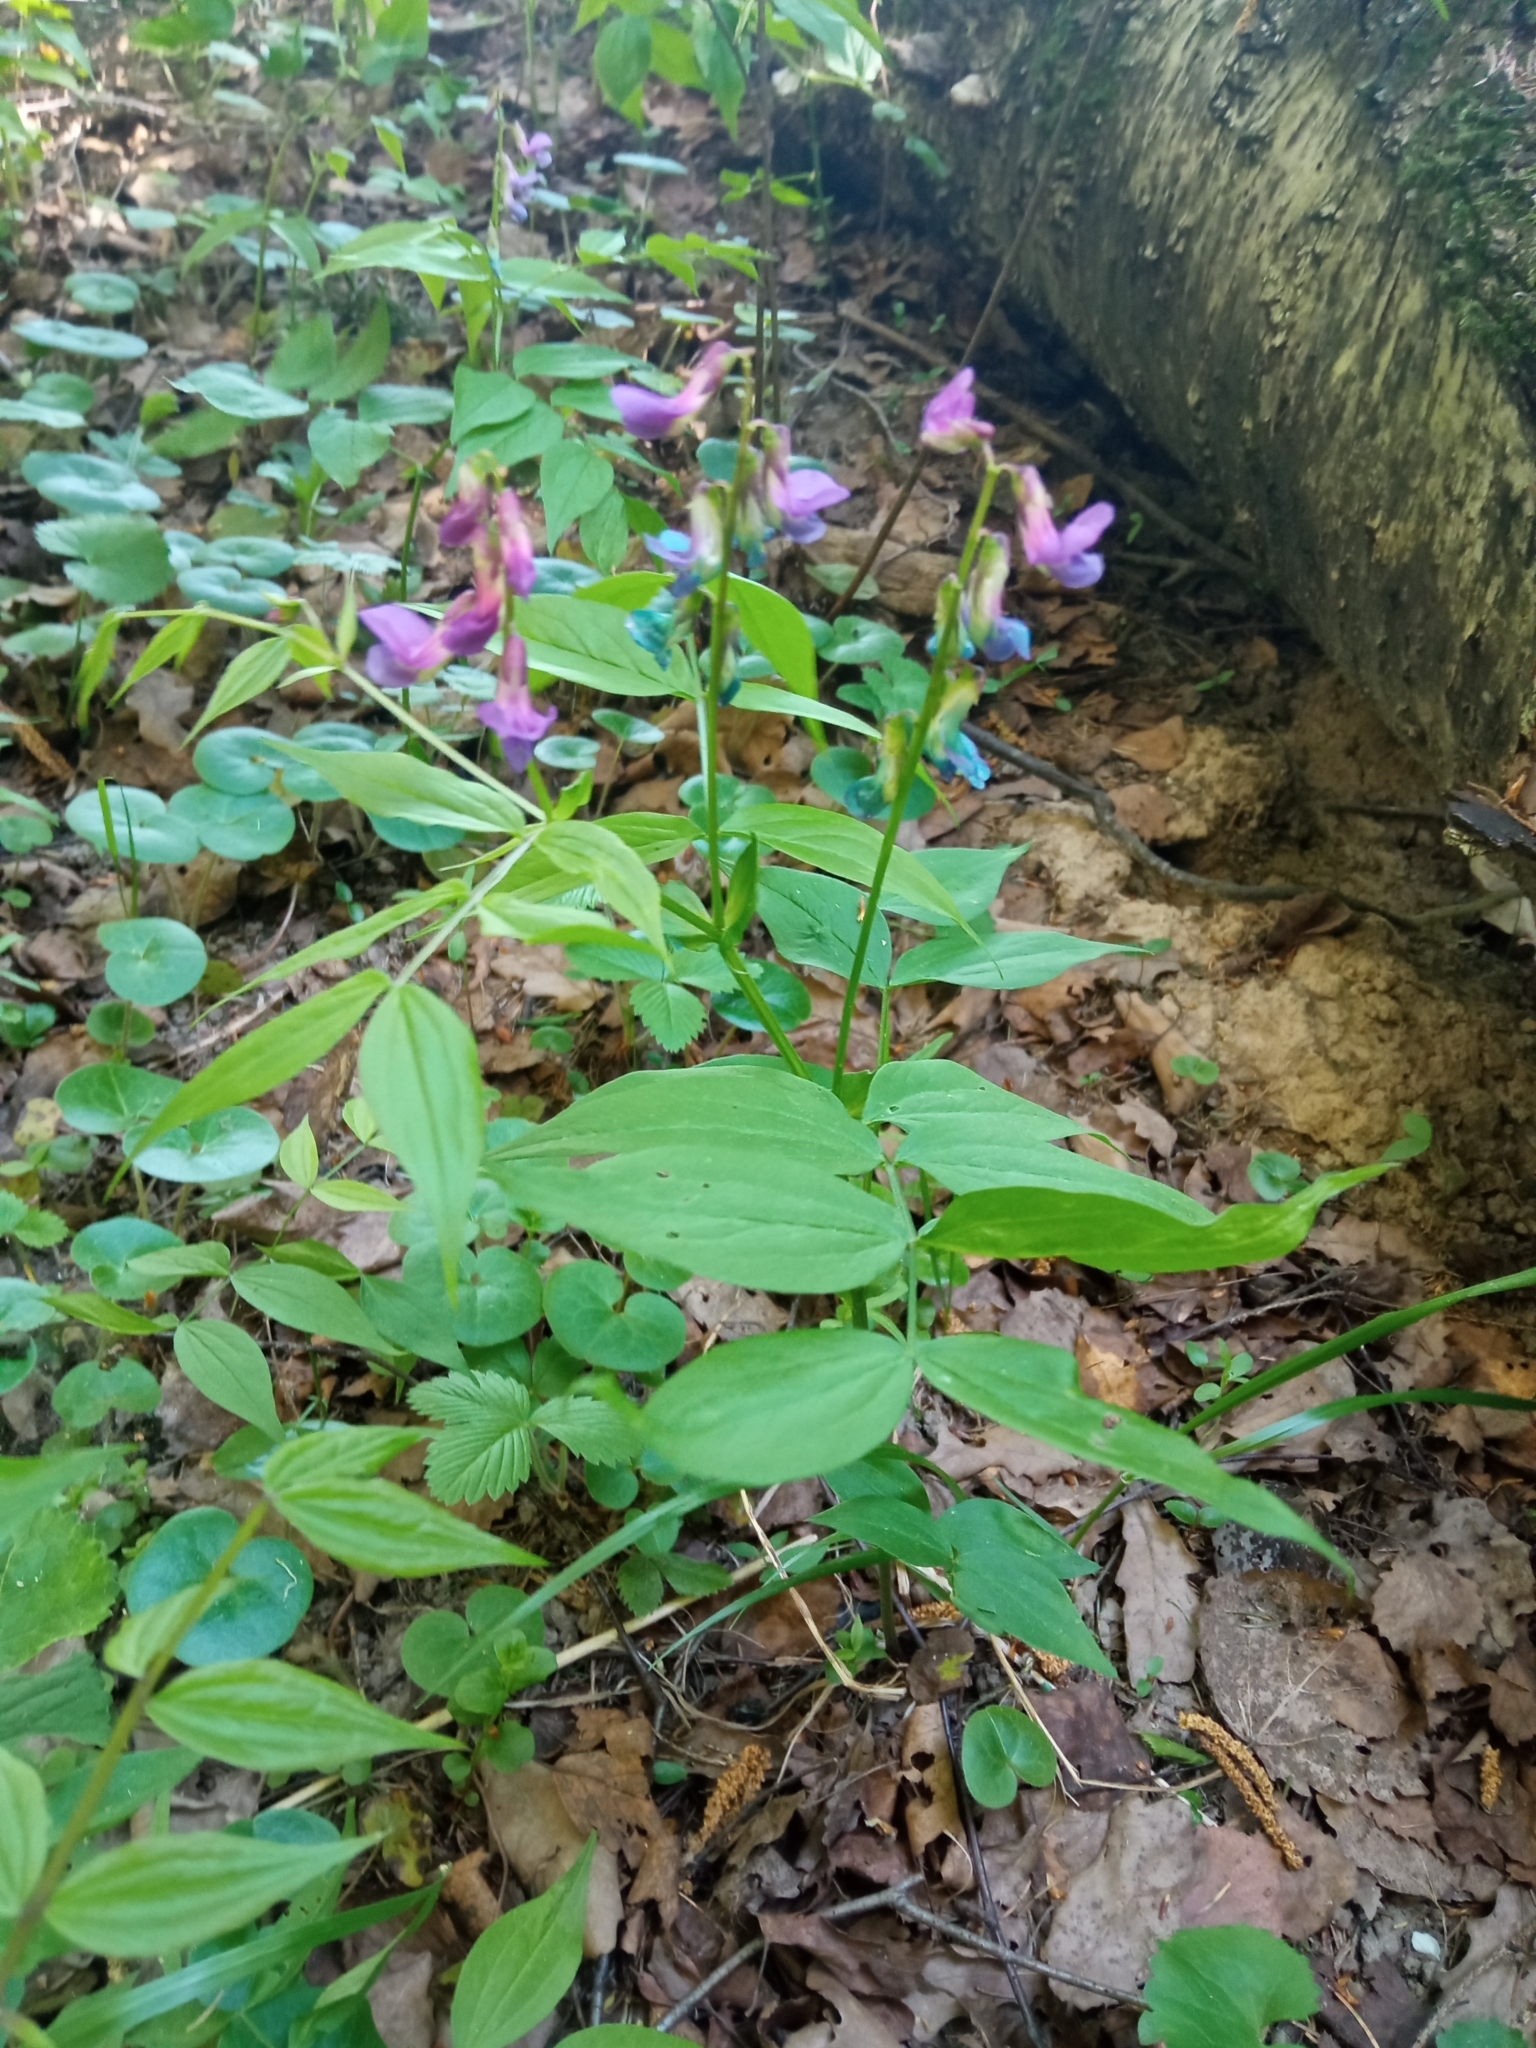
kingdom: Plantae
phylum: Tracheophyta
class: Magnoliopsida
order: Fabales
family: Fabaceae
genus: Lathyrus
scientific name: Lathyrus vernus
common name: Spring pea
